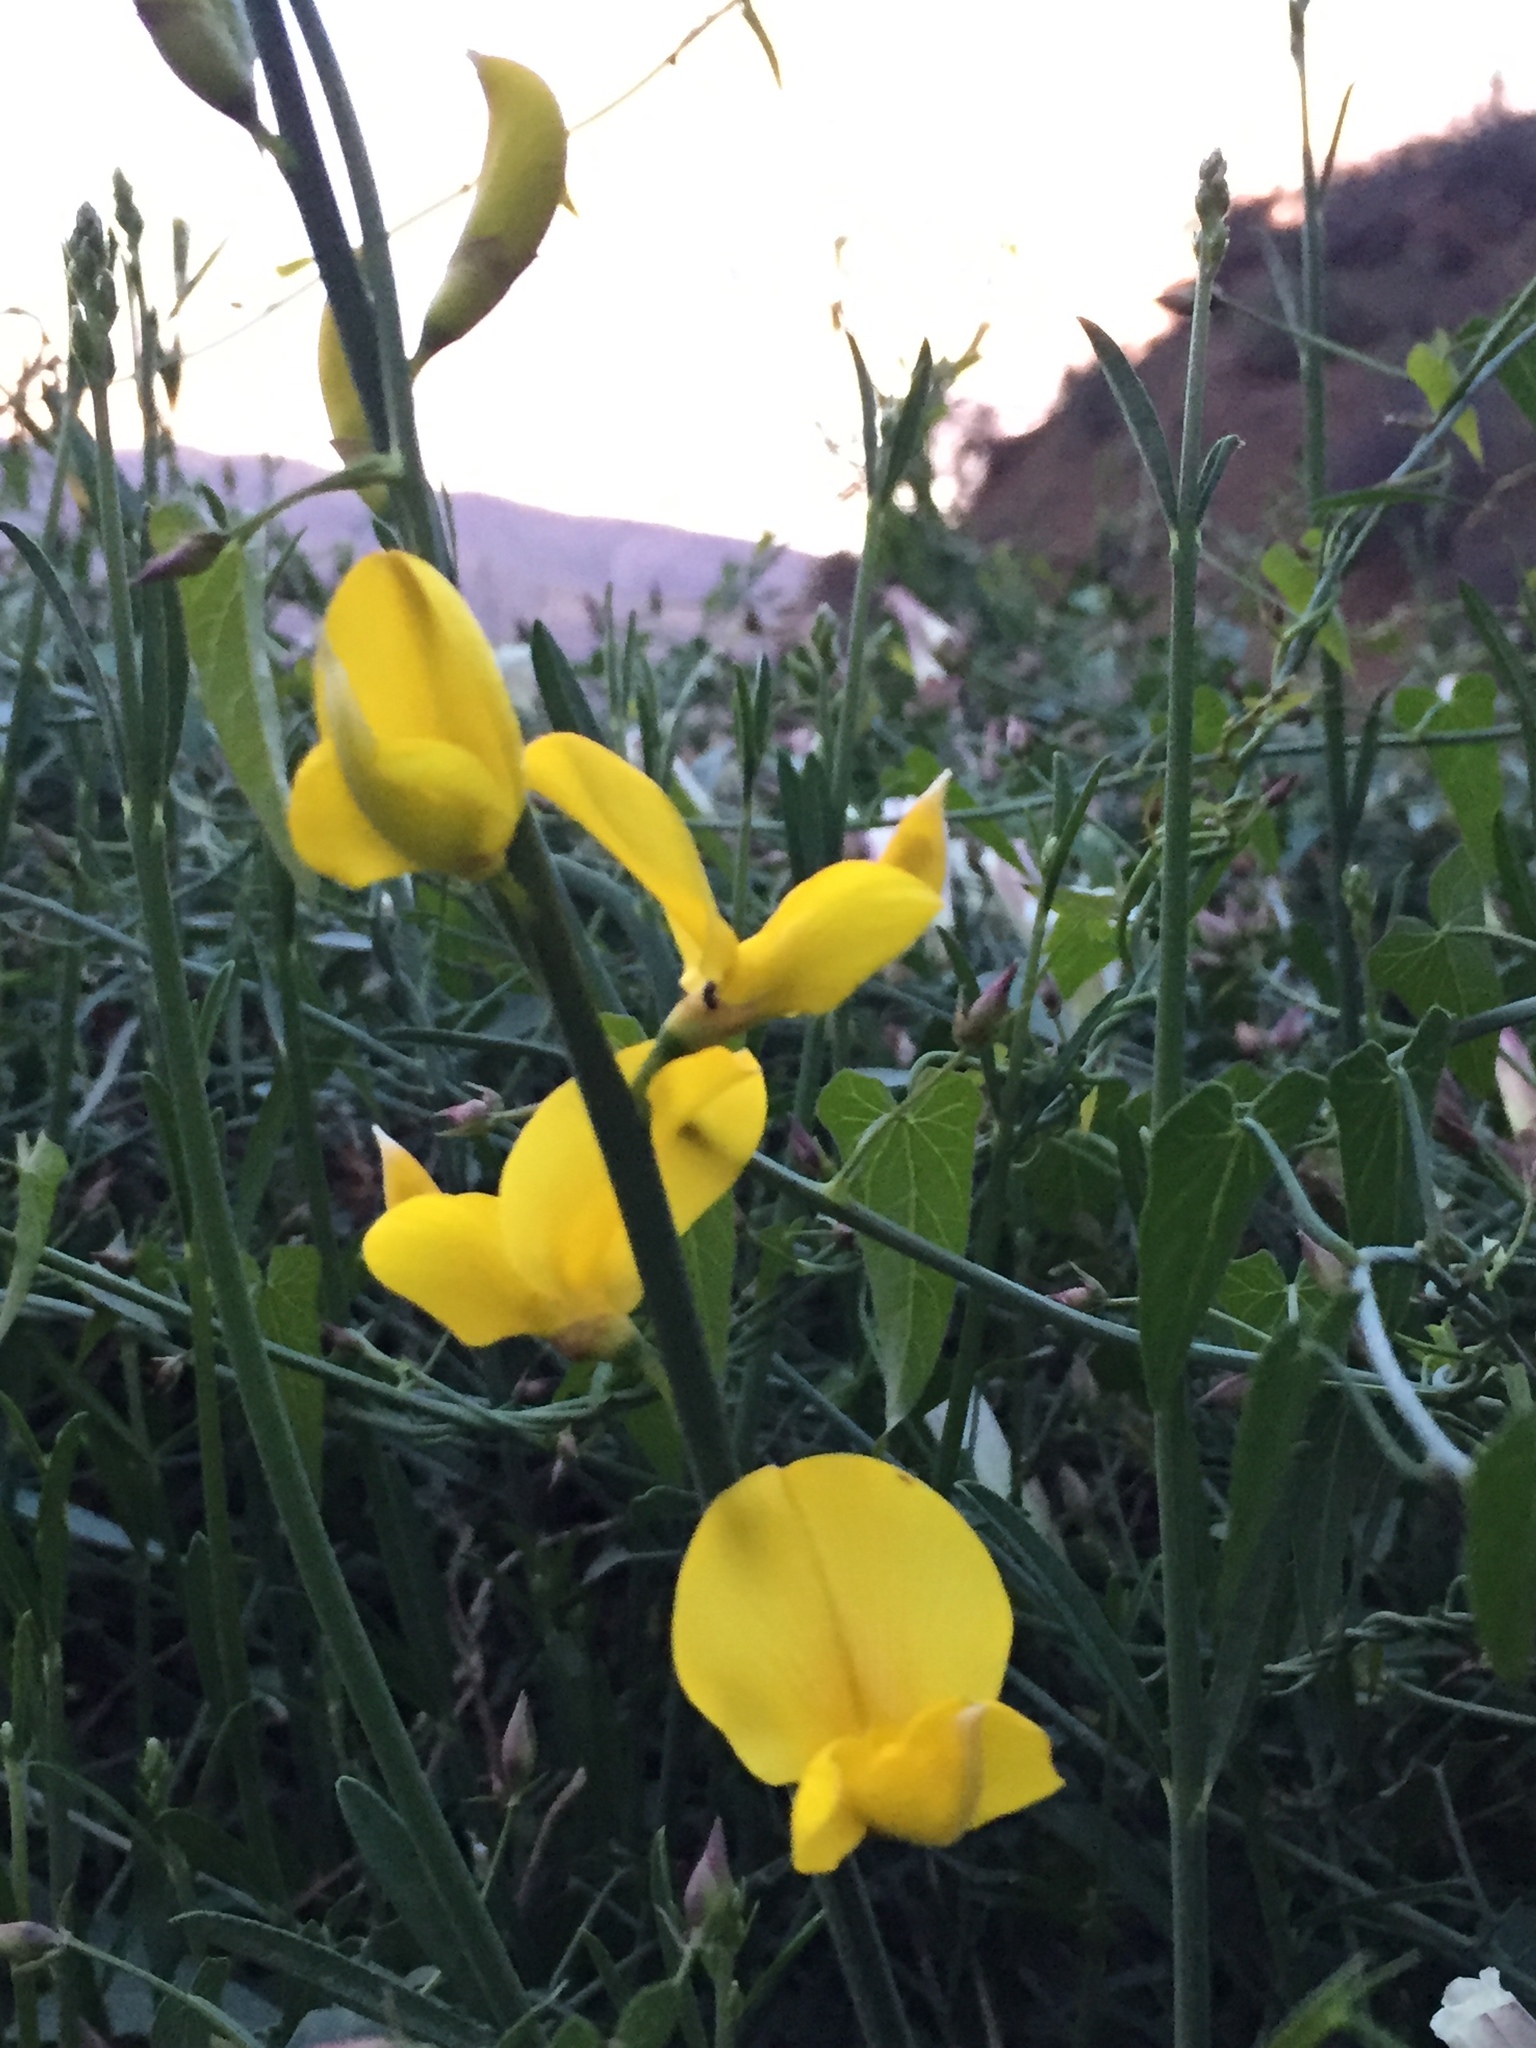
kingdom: Plantae
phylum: Tracheophyta
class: Magnoliopsida
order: Fabales
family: Fabaceae
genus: Spartium
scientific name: Spartium junceum
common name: Spanish broom
